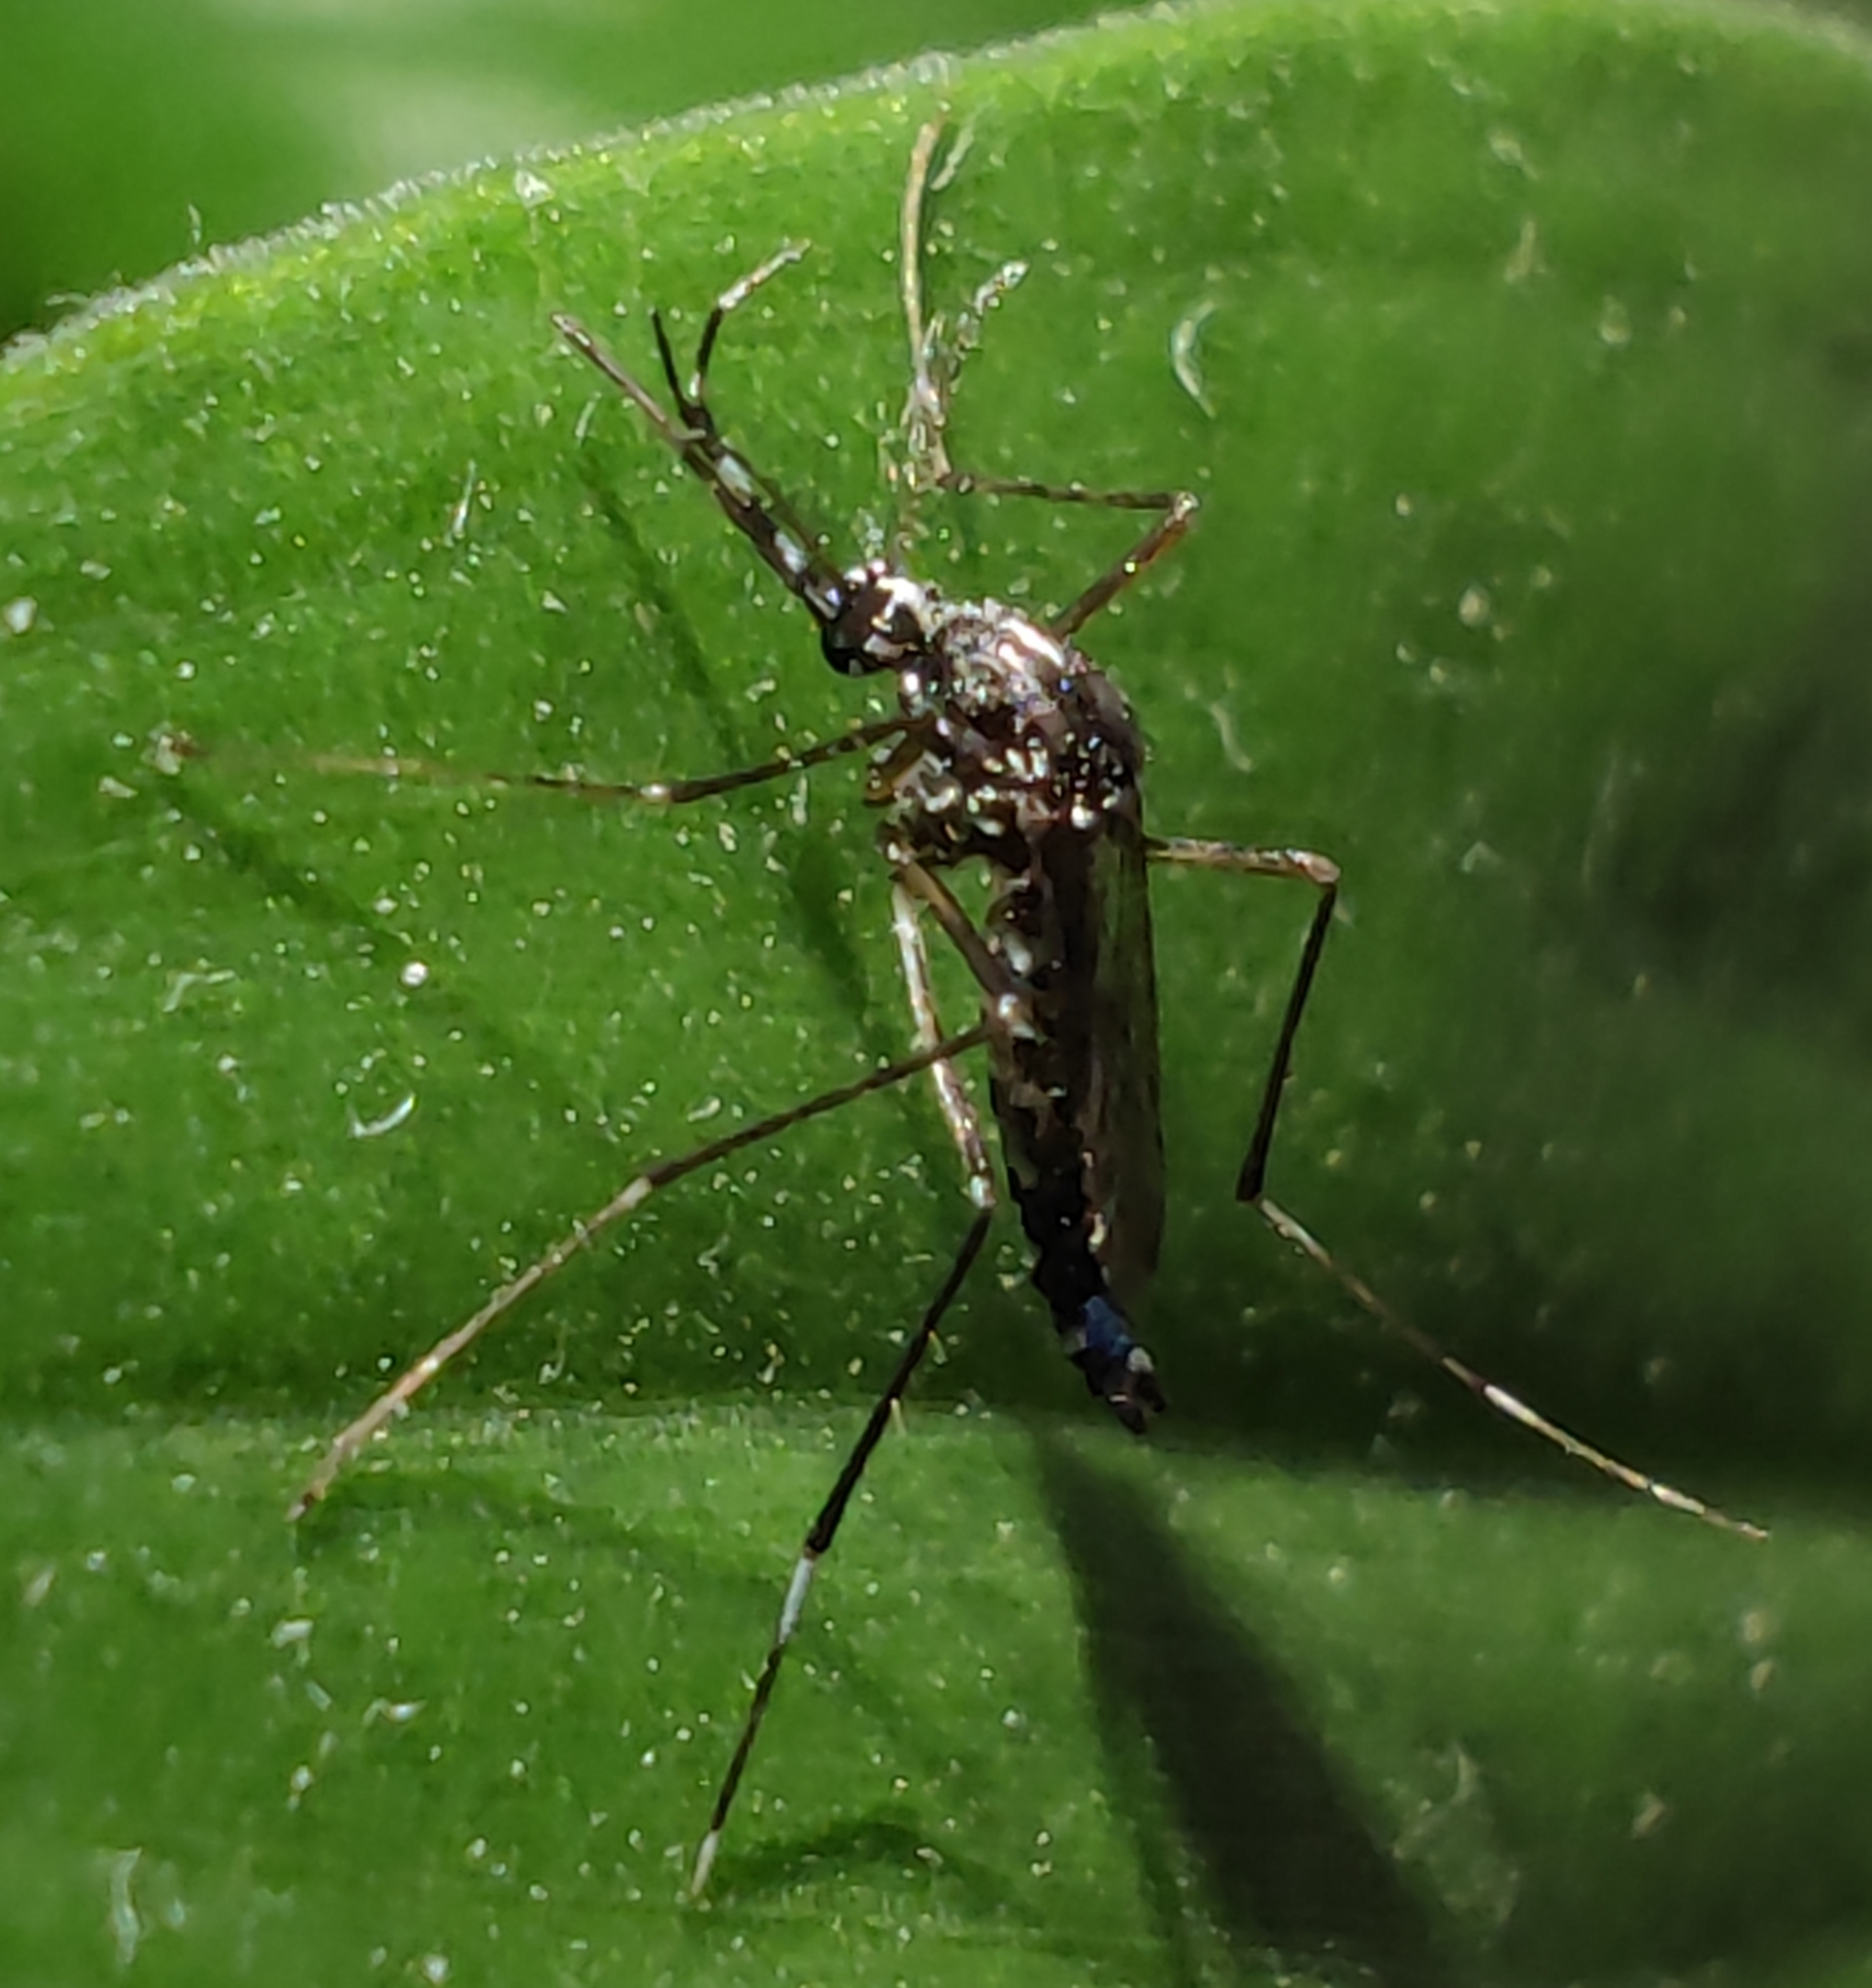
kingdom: Animalia
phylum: Arthropoda
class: Insecta
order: Diptera
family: Culicidae
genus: Aedes
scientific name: Aedes albopictus
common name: Tiger mosquito
